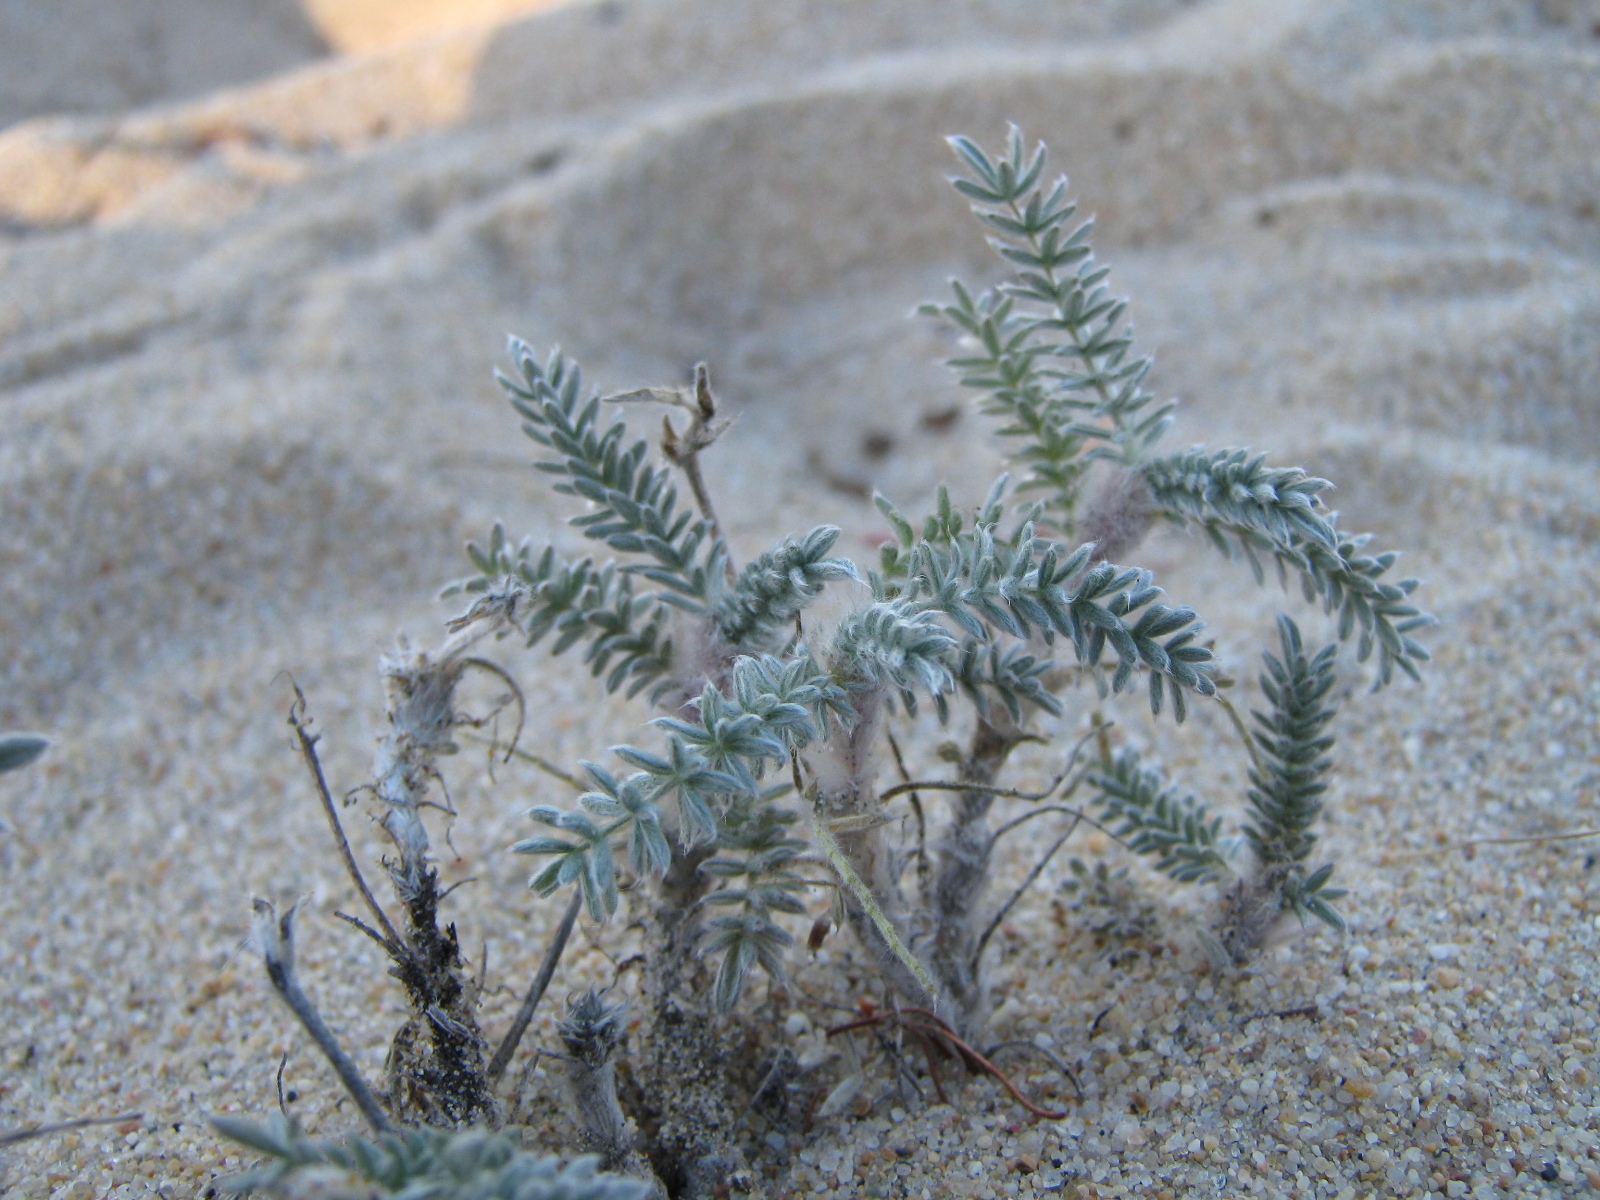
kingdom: Plantae
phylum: Tracheophyta
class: Magnoliopsida
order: Fabales
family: Fabaceae
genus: Oxytropis
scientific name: Oxytropis lanata
